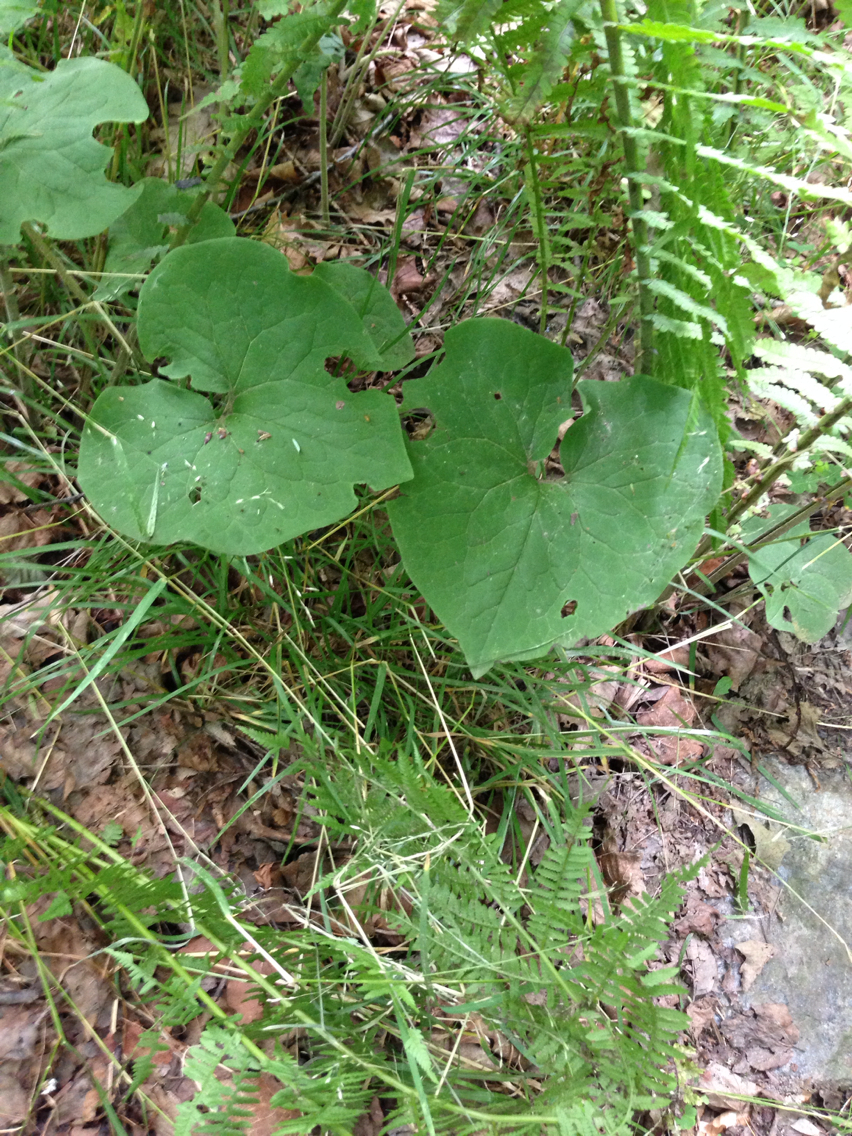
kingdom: Plantae
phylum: Tracheophyta
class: Magnoliopsida
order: Piperales
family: Aristolochiaceae
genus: Asarum
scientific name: Asarum canadense
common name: Wild ginger
